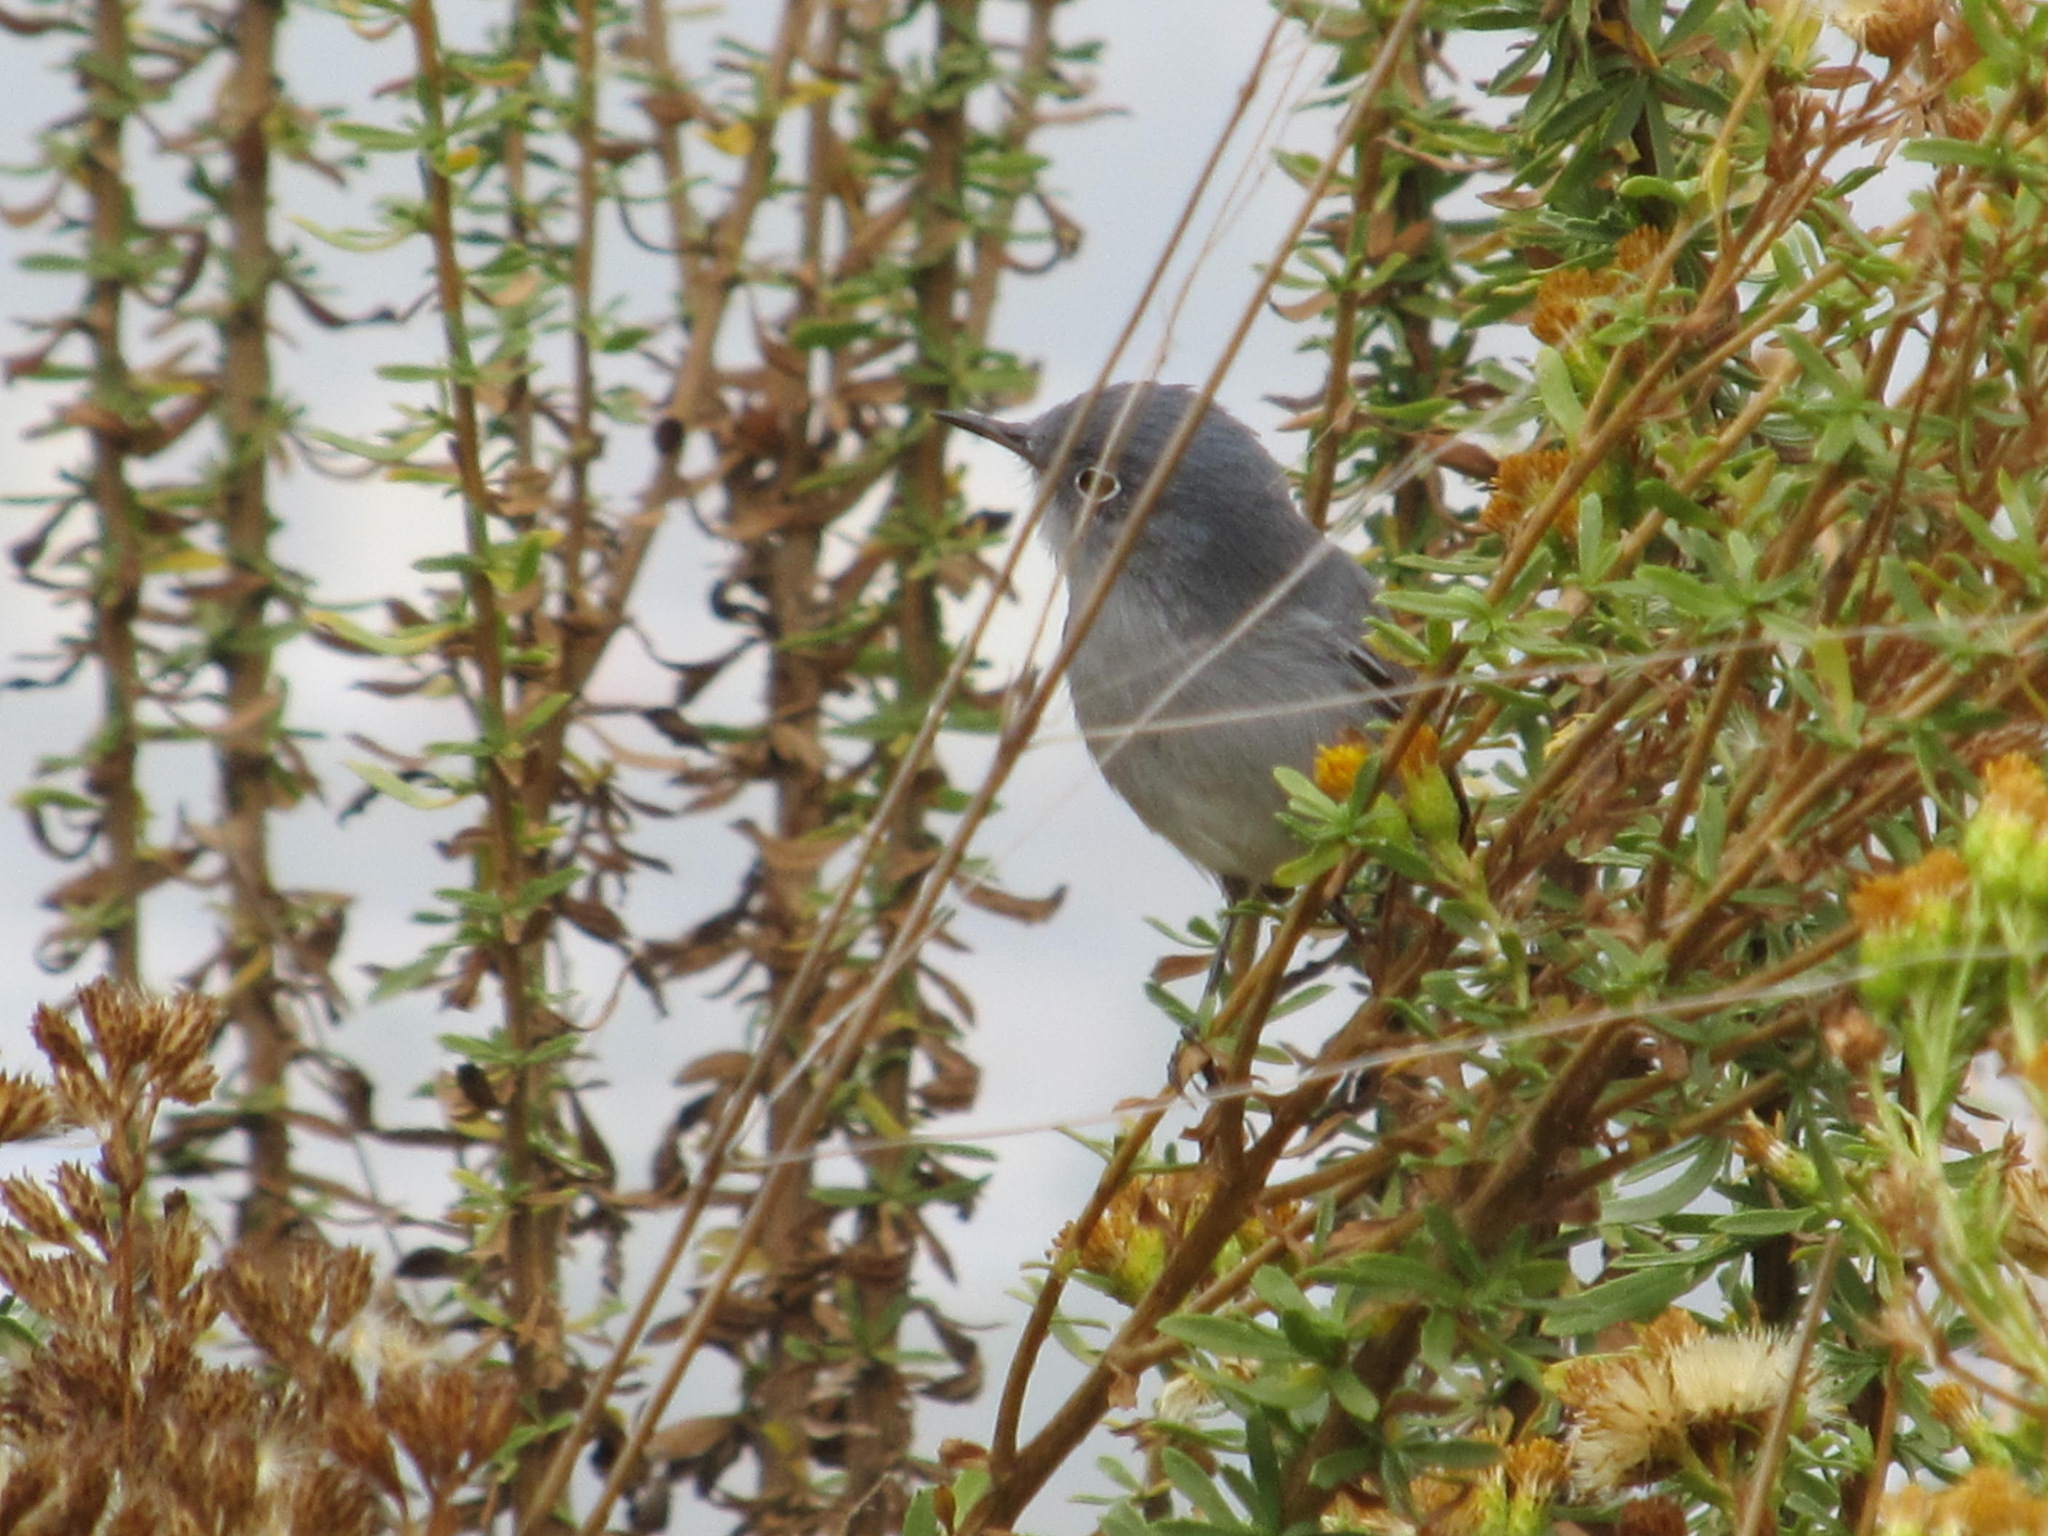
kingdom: Animalia
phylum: Chordata
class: Aves
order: Passeriformes
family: Polioptilidae
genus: Polioptila
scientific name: Polioptila caerulea
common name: Blue-gray gnatcatcher
